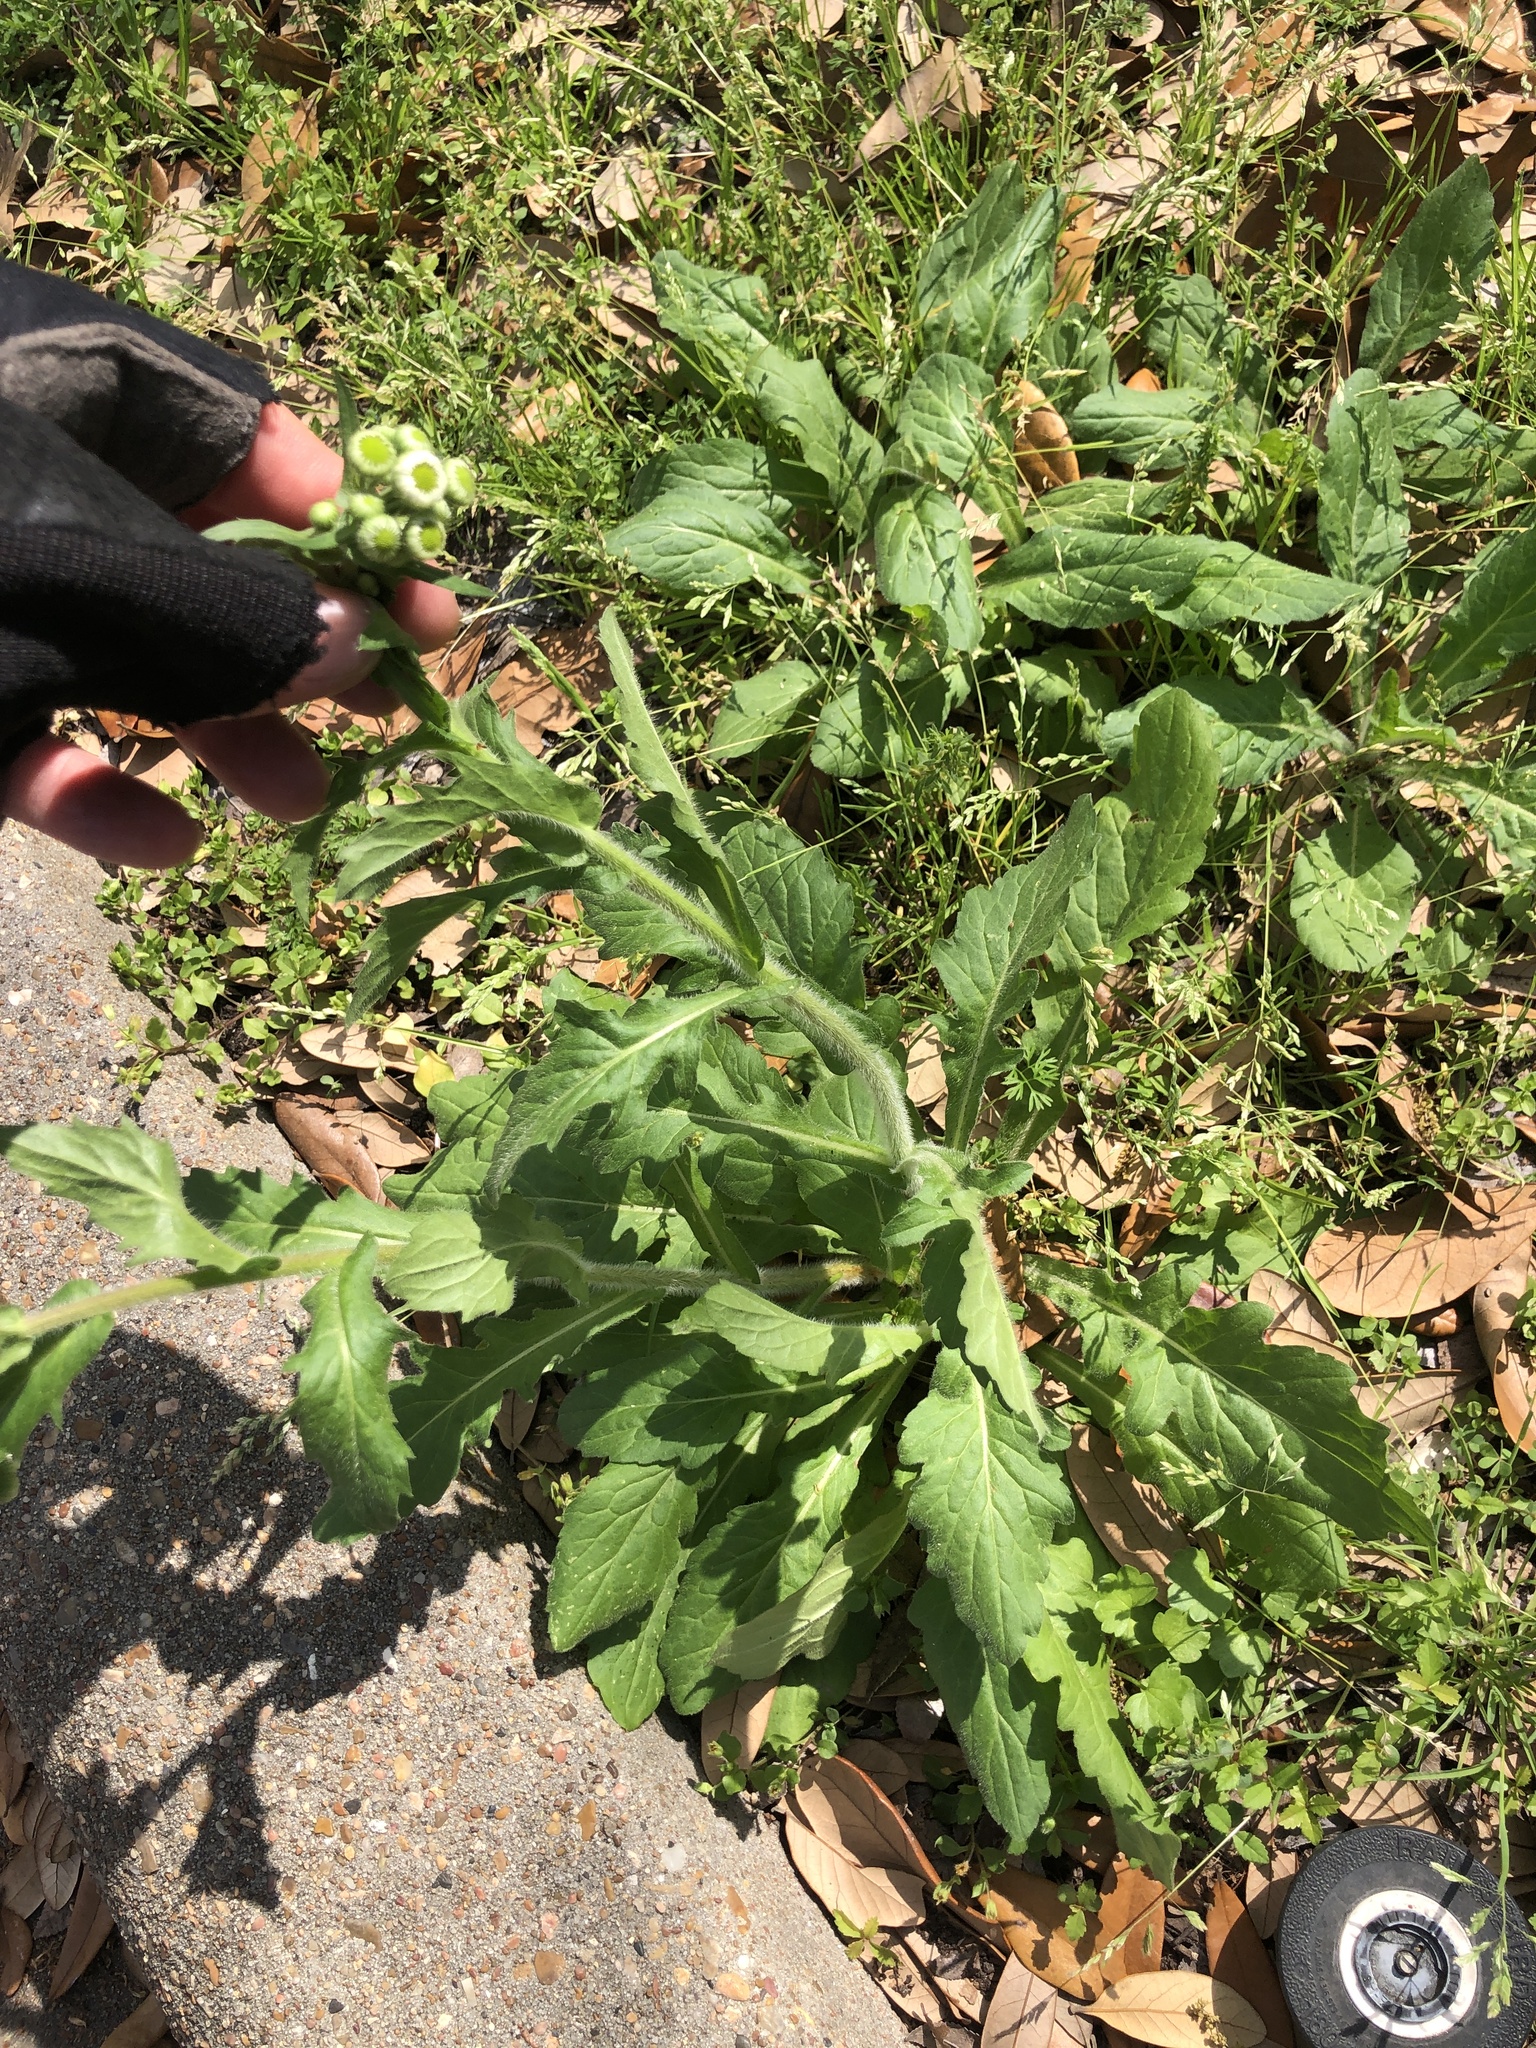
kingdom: Plantae
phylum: Tracheophyta
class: Magnoliopsida
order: Asterales
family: Asteraceae
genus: Erigeron
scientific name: Erigeron philadelphicus
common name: Robin's-plantain
